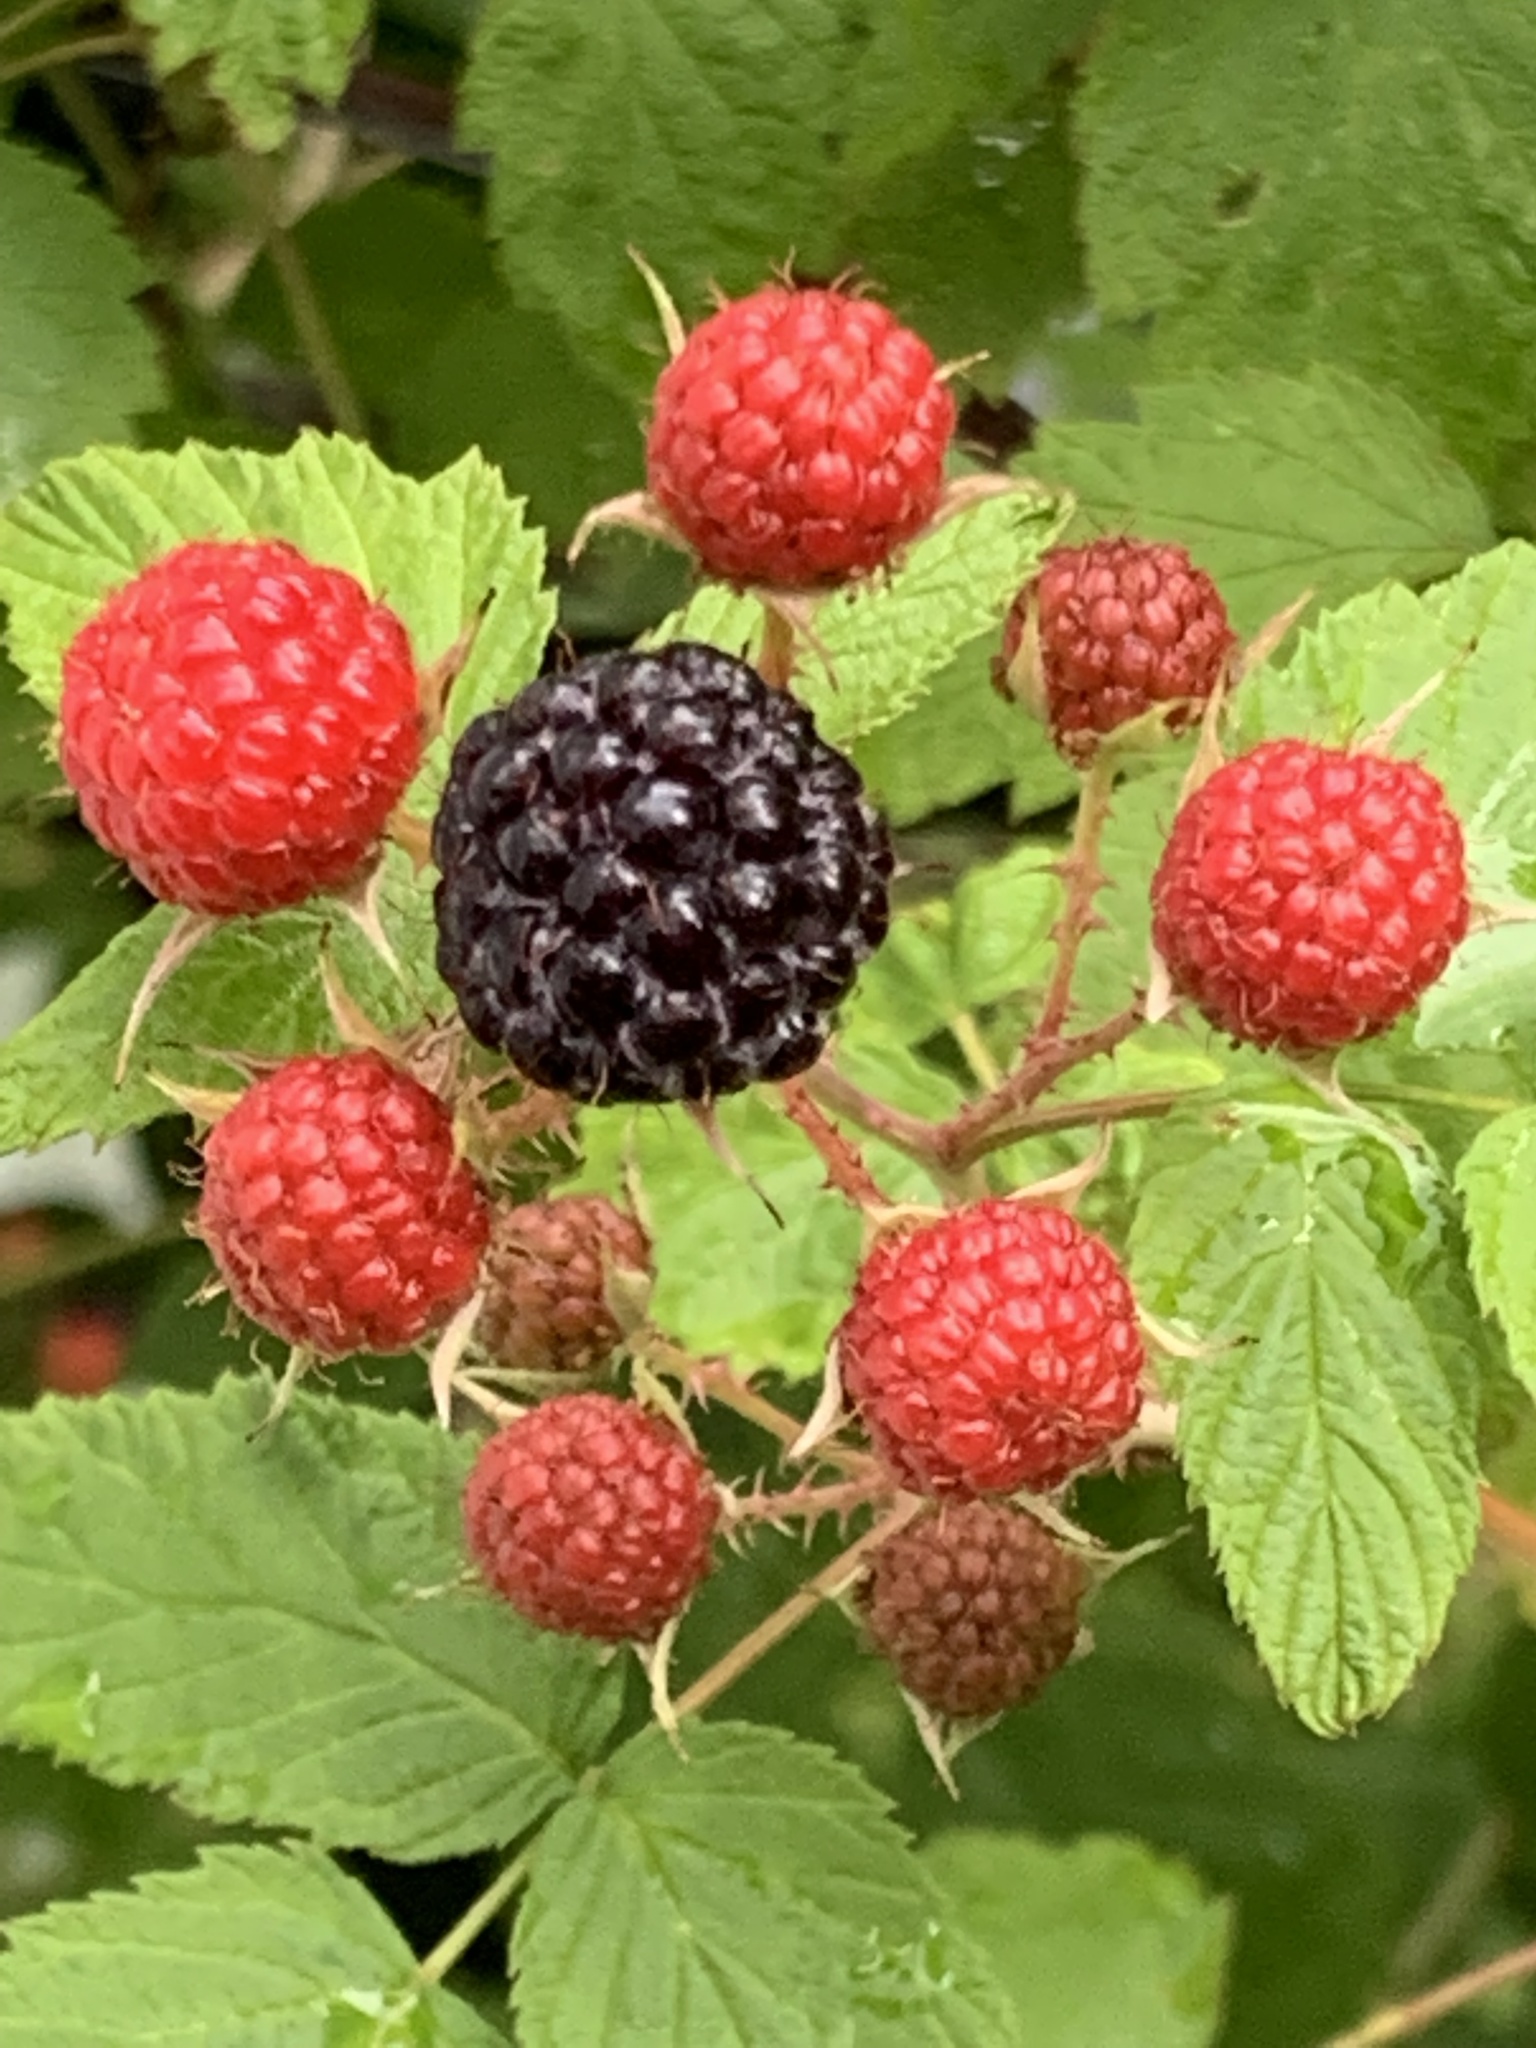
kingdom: Plantae
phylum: Tracheophyta
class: Magnoliopsida
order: Rosales
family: Rosaceae
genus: Rubus
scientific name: Rubus occidentalis
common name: Black raspberry
